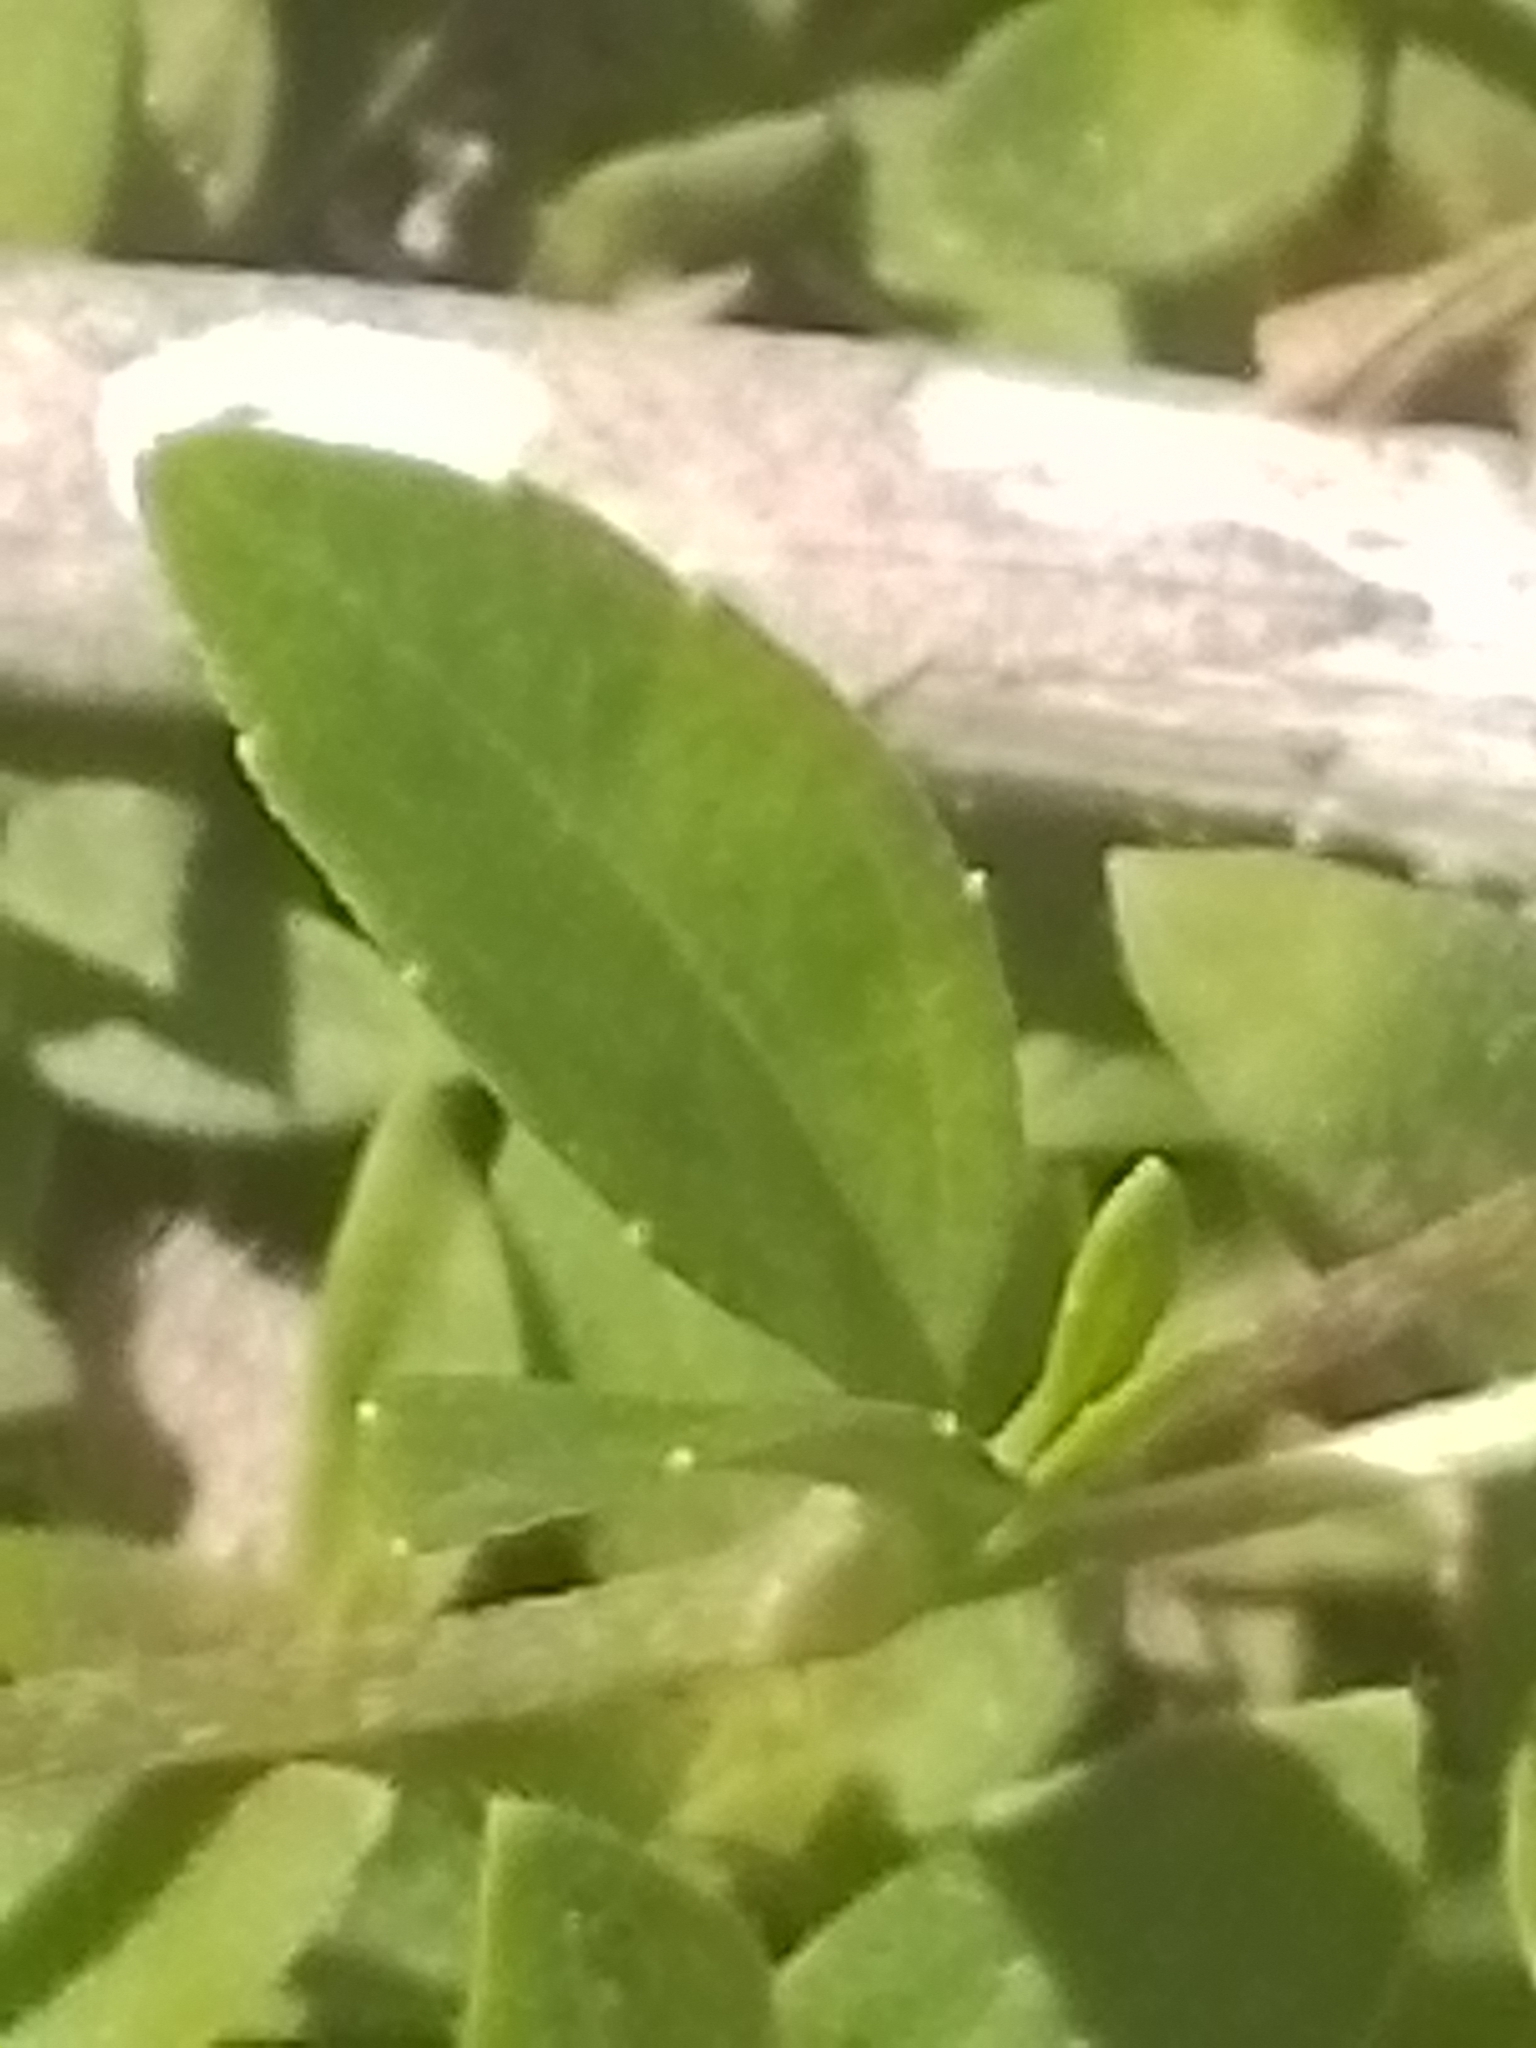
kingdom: Plantae
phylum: Tracheophyta
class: Magnoliopsida
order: Asterales
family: Asteraceae
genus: Eclipta
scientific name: Eclipta elliptica
